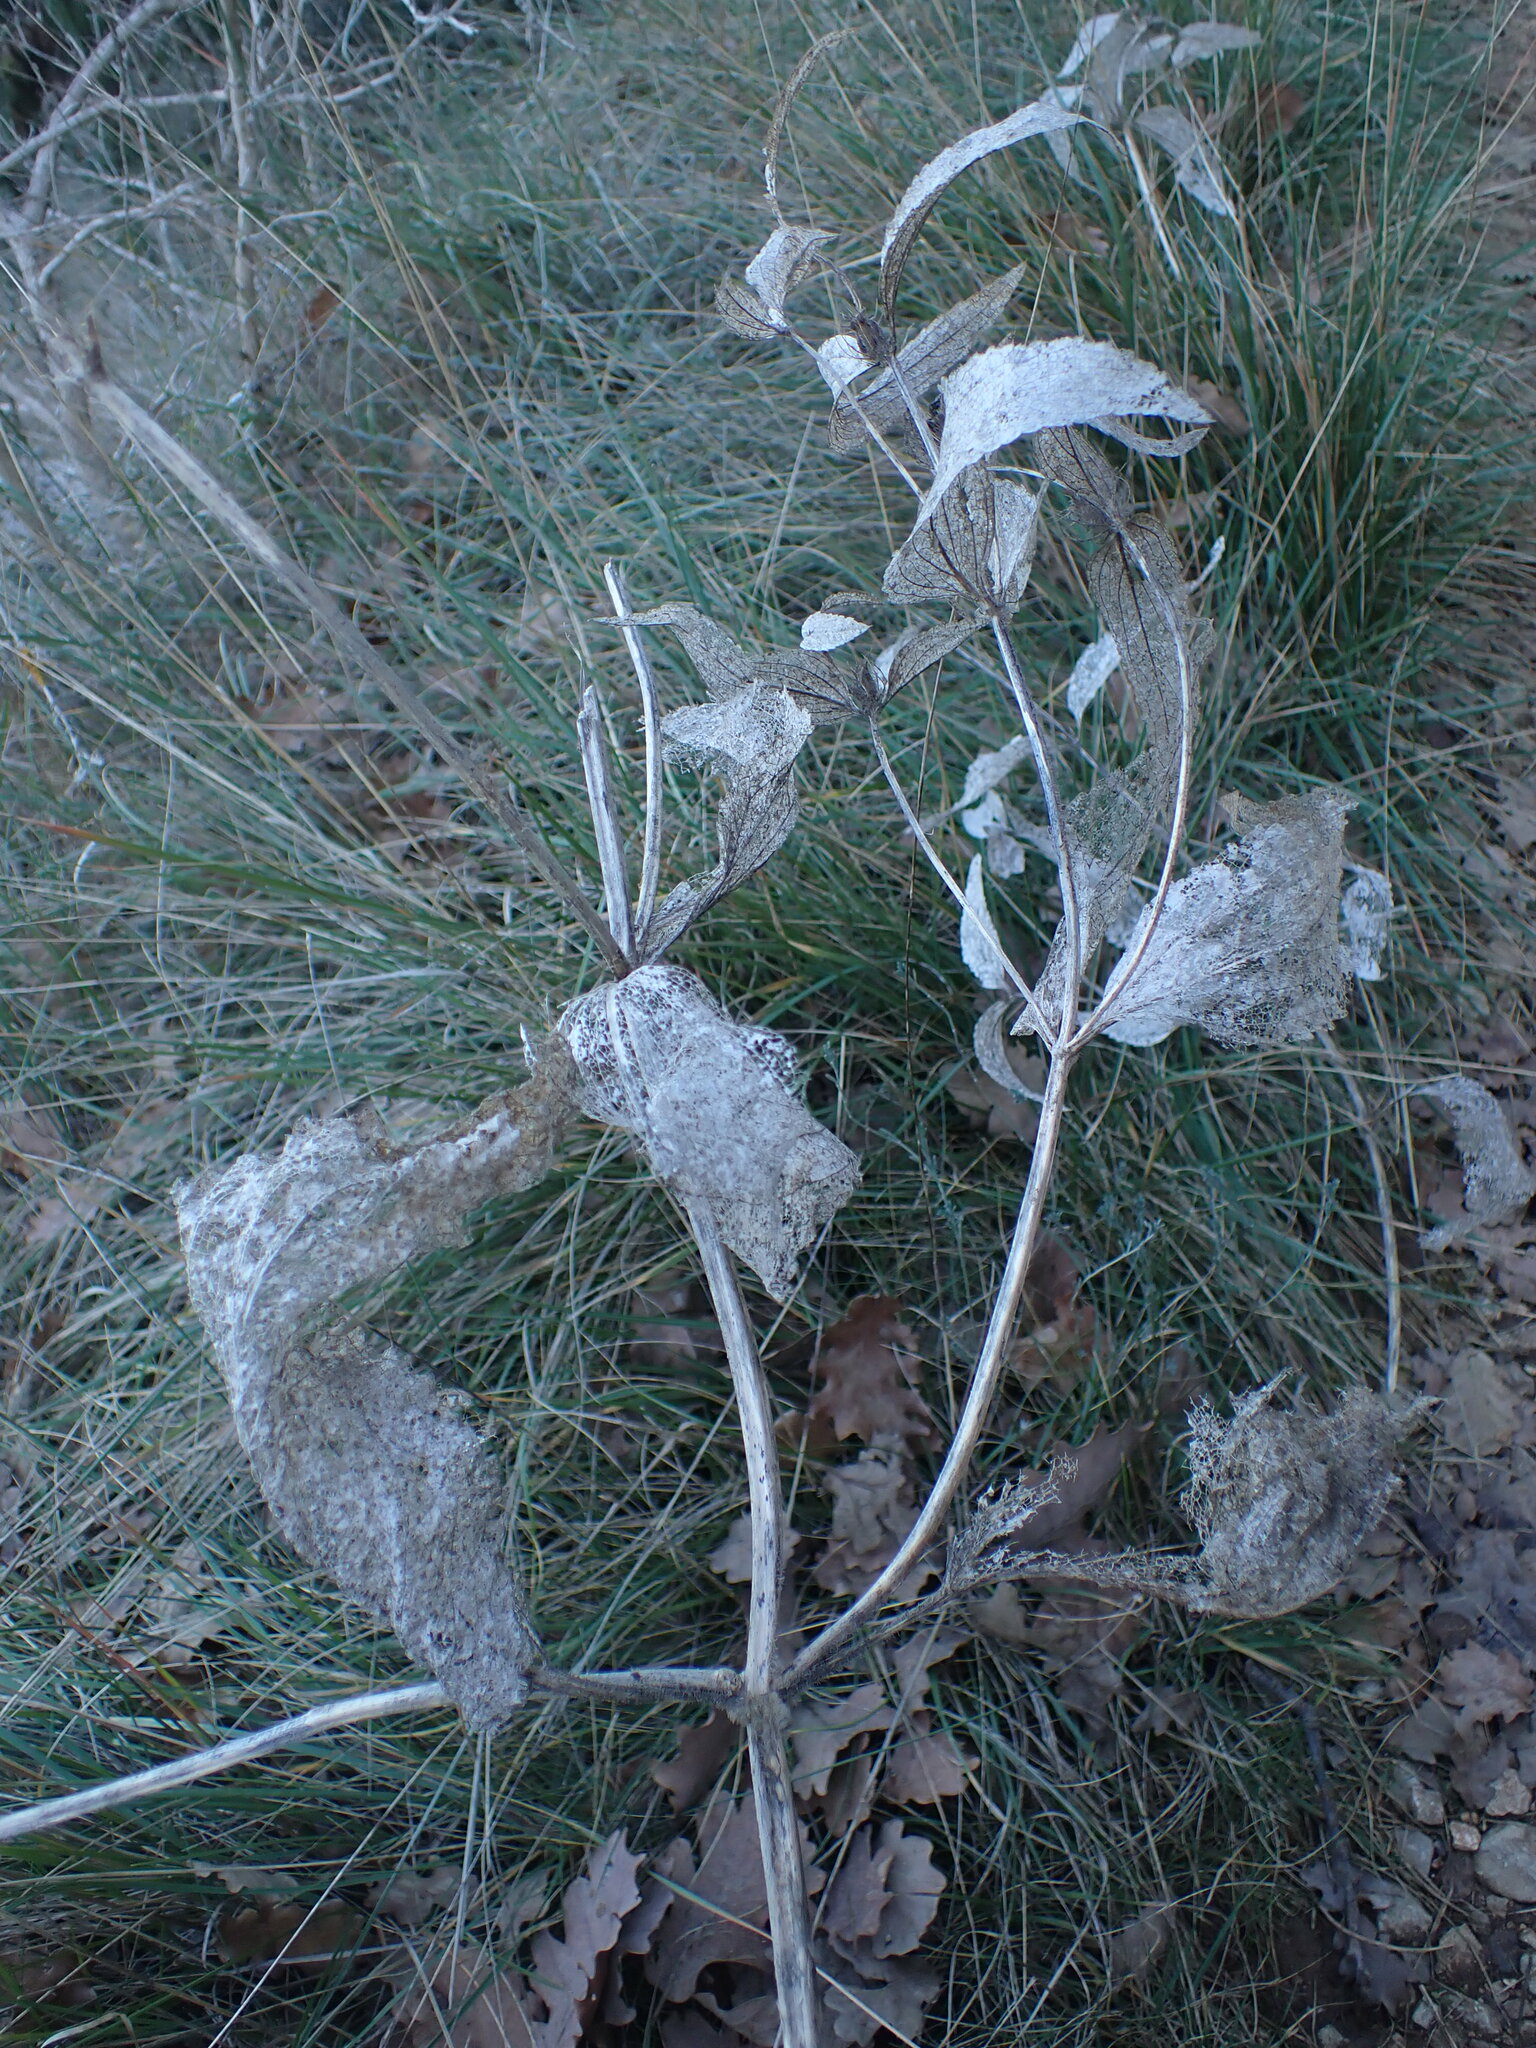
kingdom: Plantae
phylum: Tracheophyta
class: Magnoliopsida
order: Lamiales
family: Lamiaceae
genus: Phlomis
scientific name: Phlomis herba-venti
